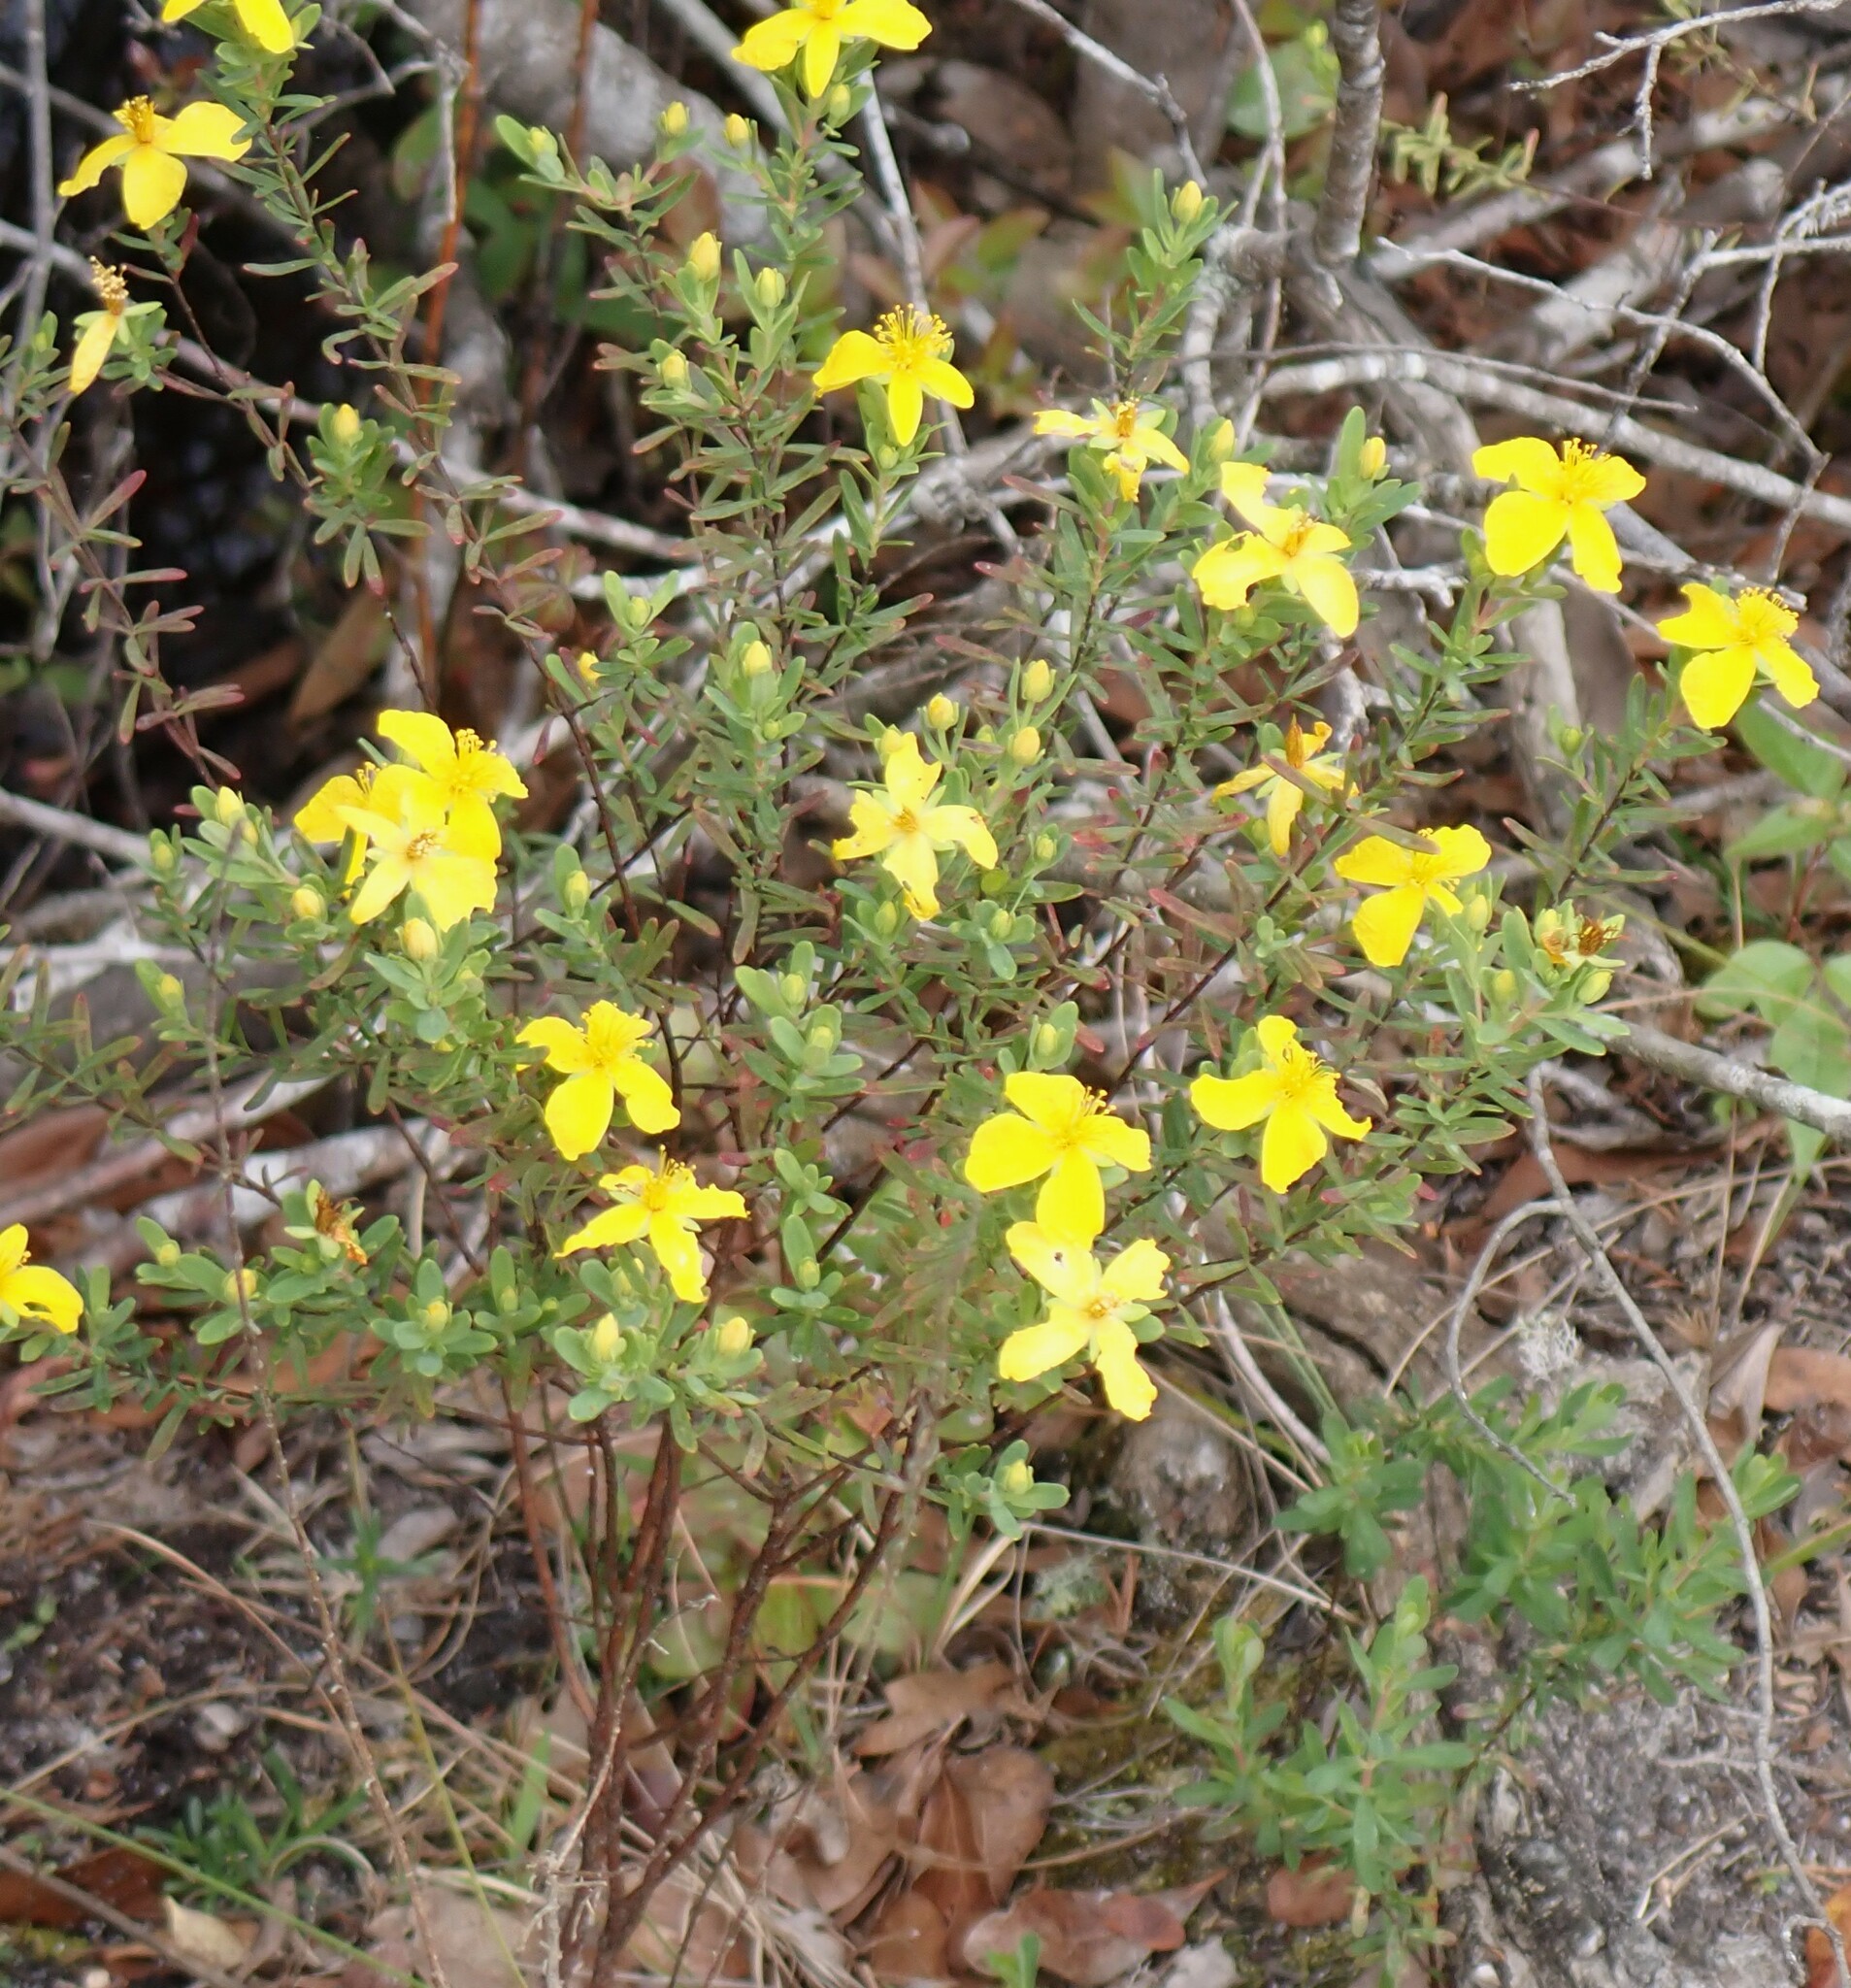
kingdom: Plantae
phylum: Tracheophyta
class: Magnoliopsida
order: Malpighiales
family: Hypericaceae
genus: Hypericum
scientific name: Hypericum microsepalum
